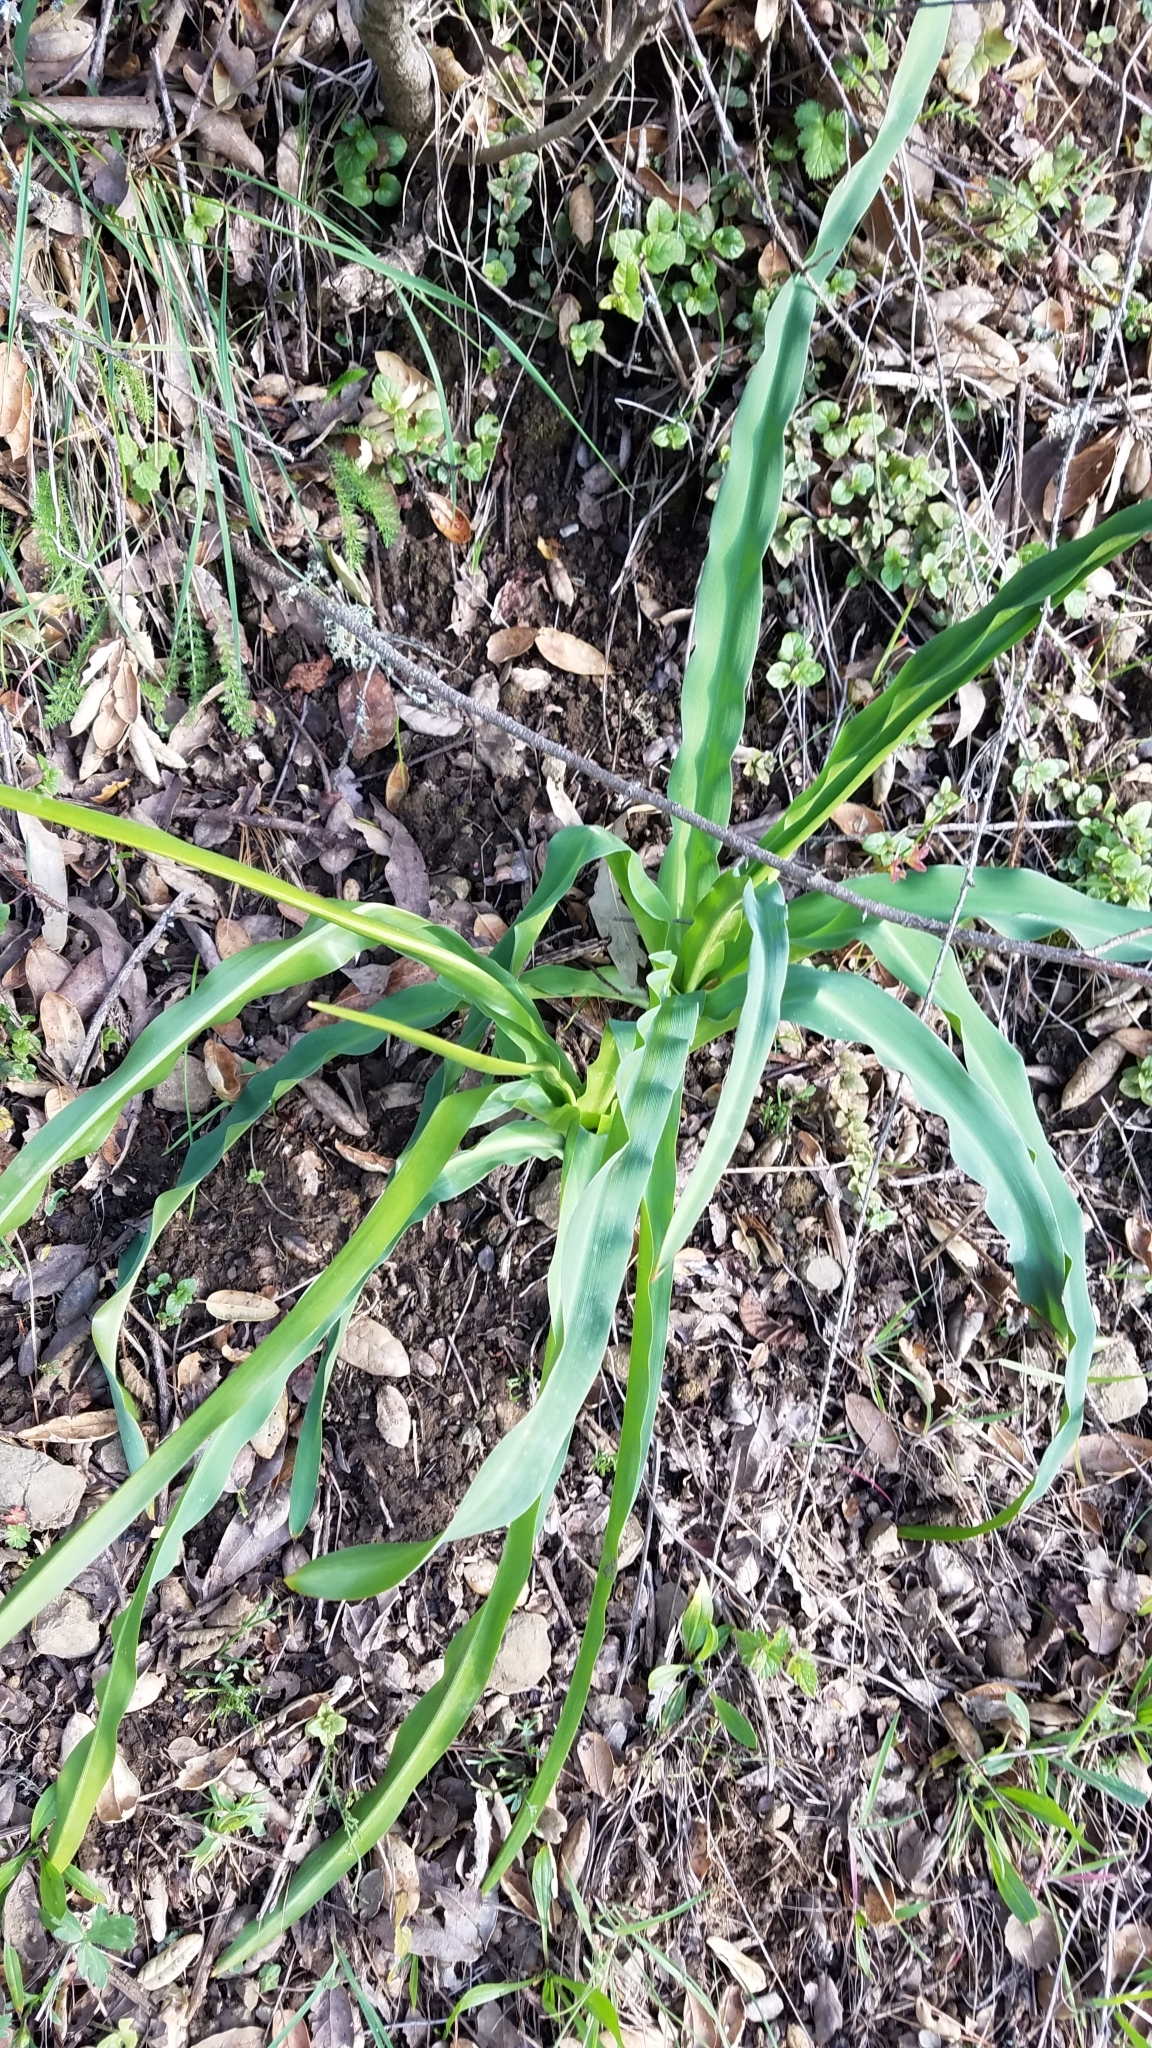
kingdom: Plantae
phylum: Tracheophyta
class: Liliopsida
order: Asparagales
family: Asparagaceae
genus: Chlorogalum
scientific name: Chlorogalum pomeridianum
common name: Amole
